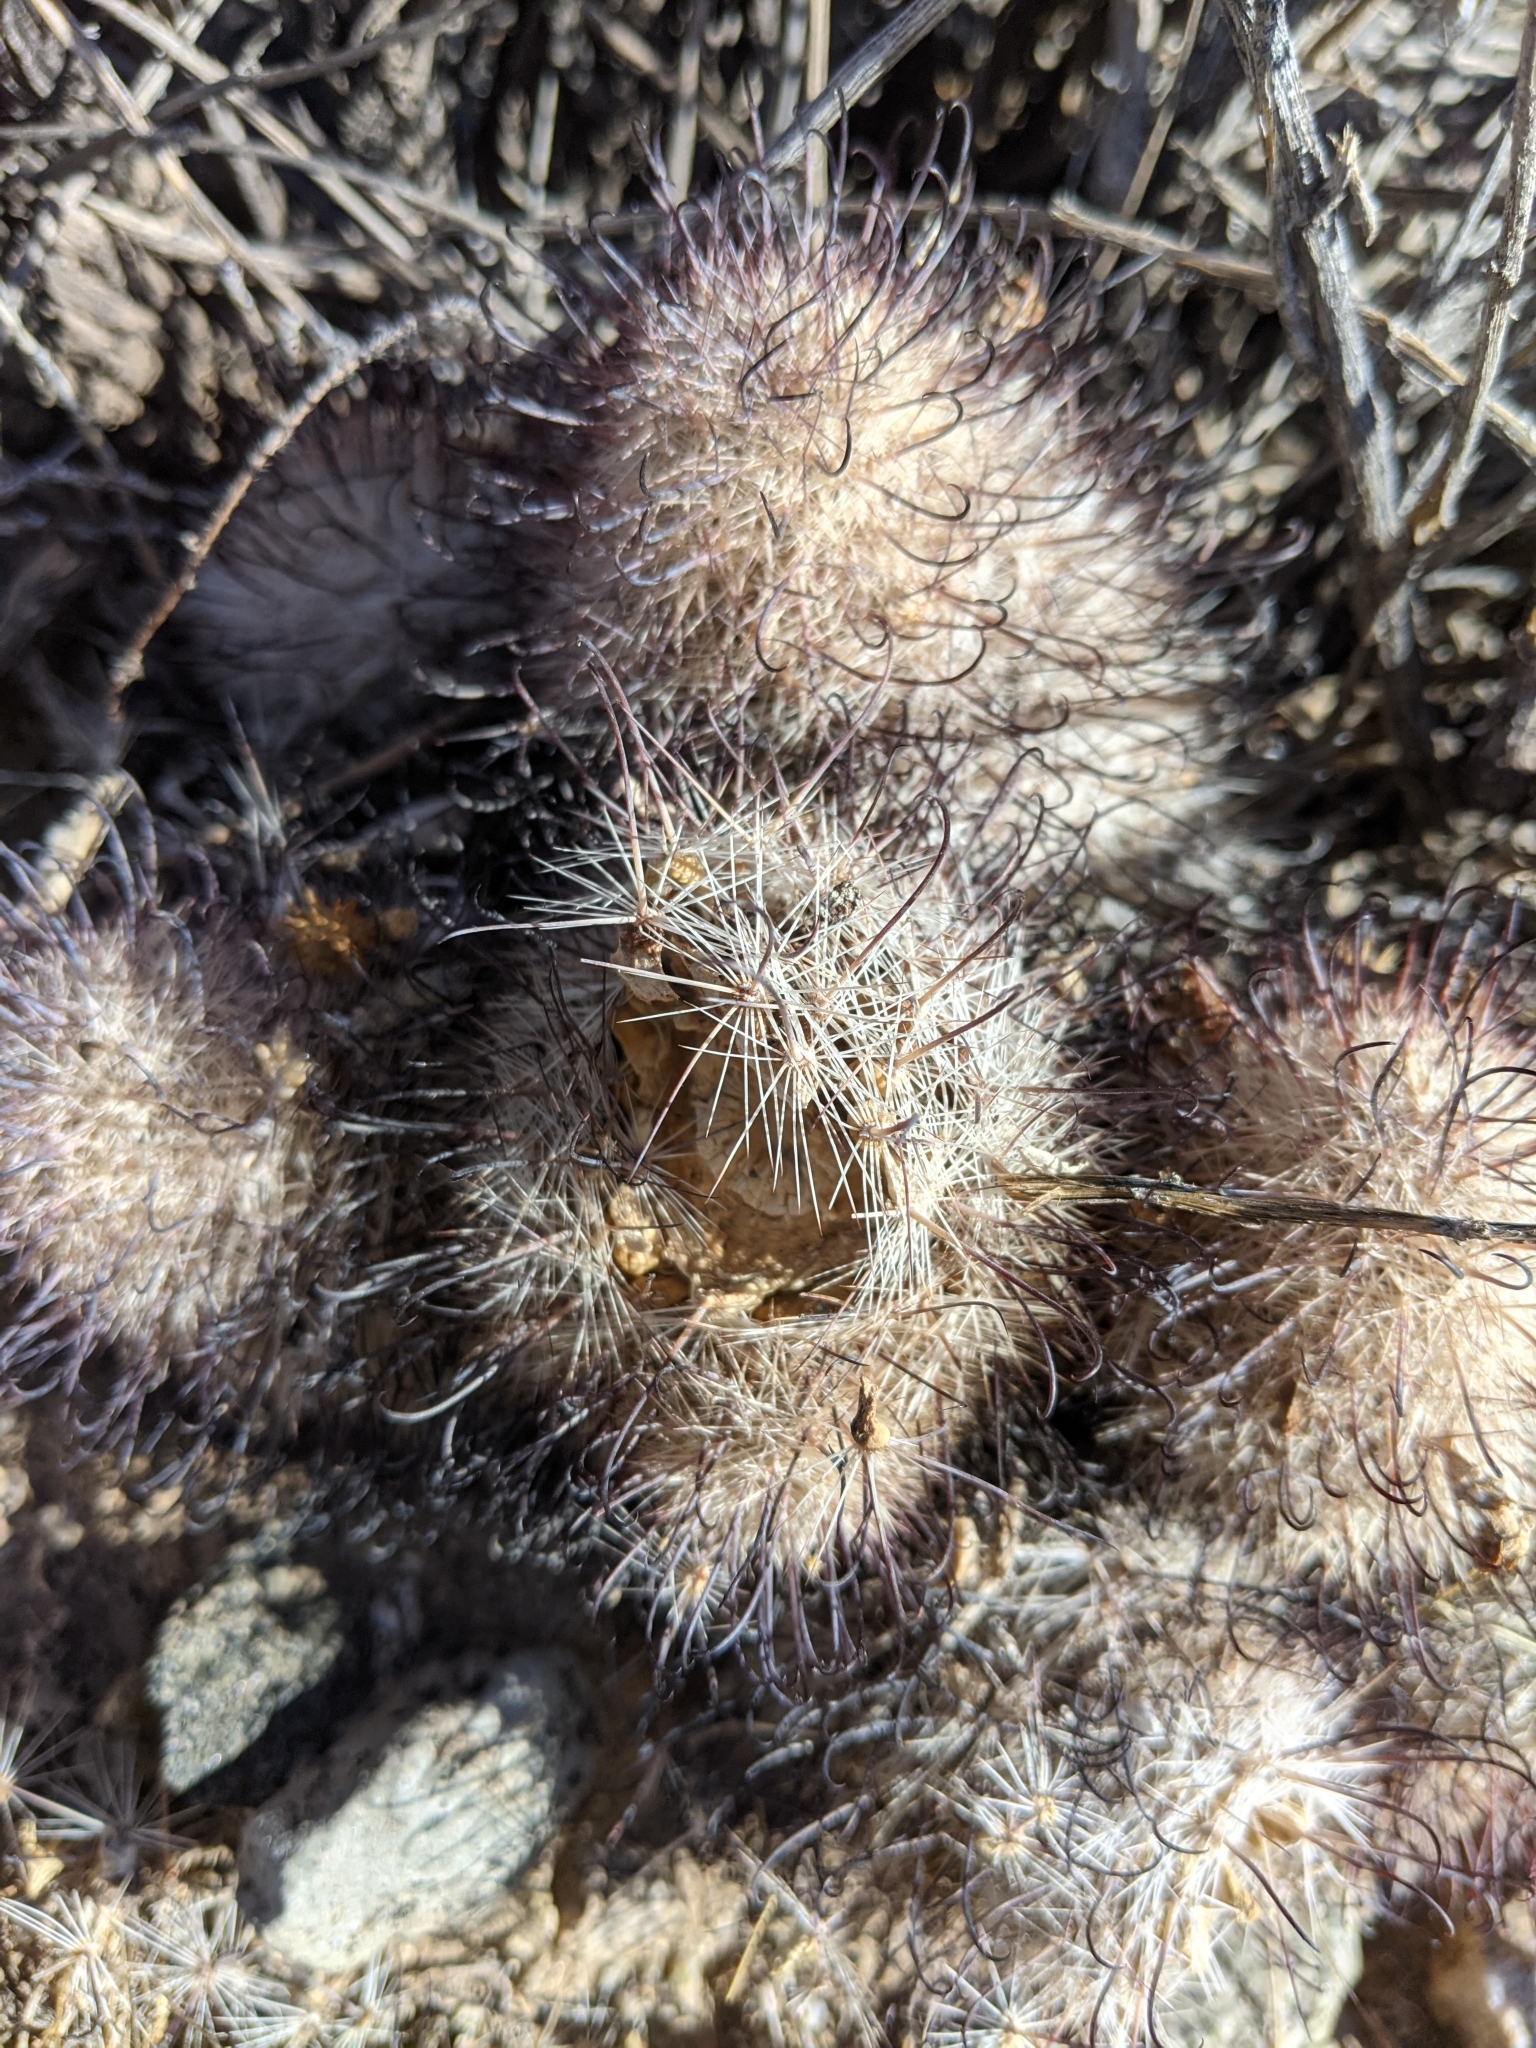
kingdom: Plantae
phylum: Tracheophyta
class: Magnoliopsida
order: Caryophyllales
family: Cactaceae
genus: Cochemiea
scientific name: Cochemiea grahamii
